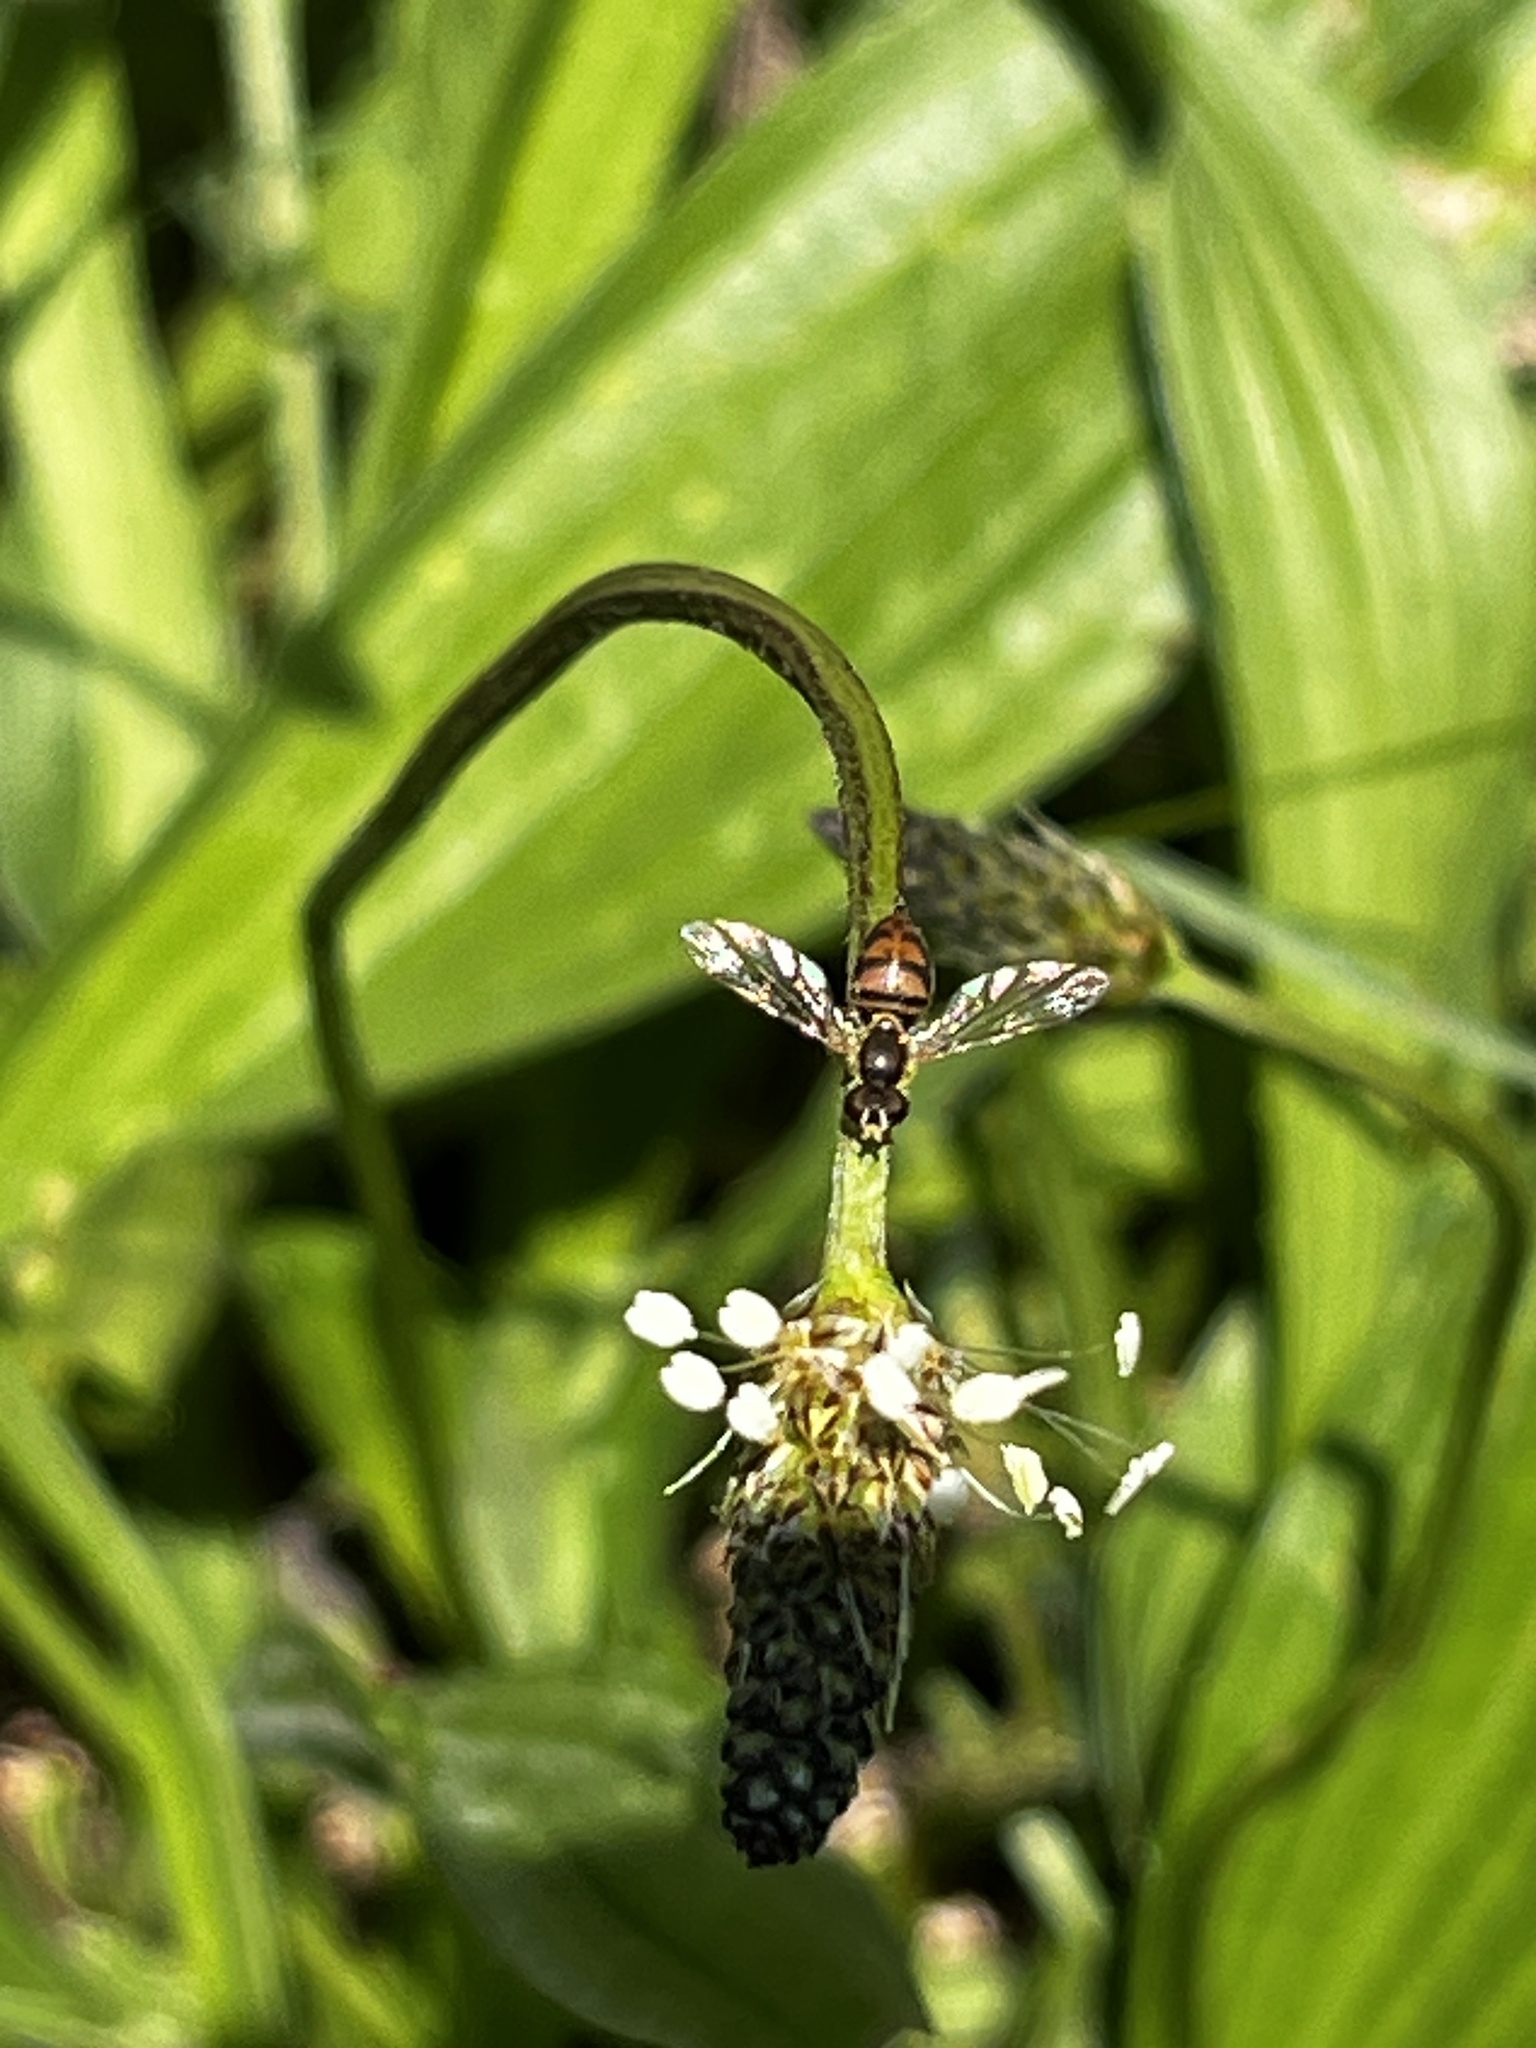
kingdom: Animalia
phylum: Arthropoda
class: Insecta
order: Diptera
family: Syrphidae
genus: Toxomerus
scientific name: Toxomerus marginatus
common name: Syrphid fly
